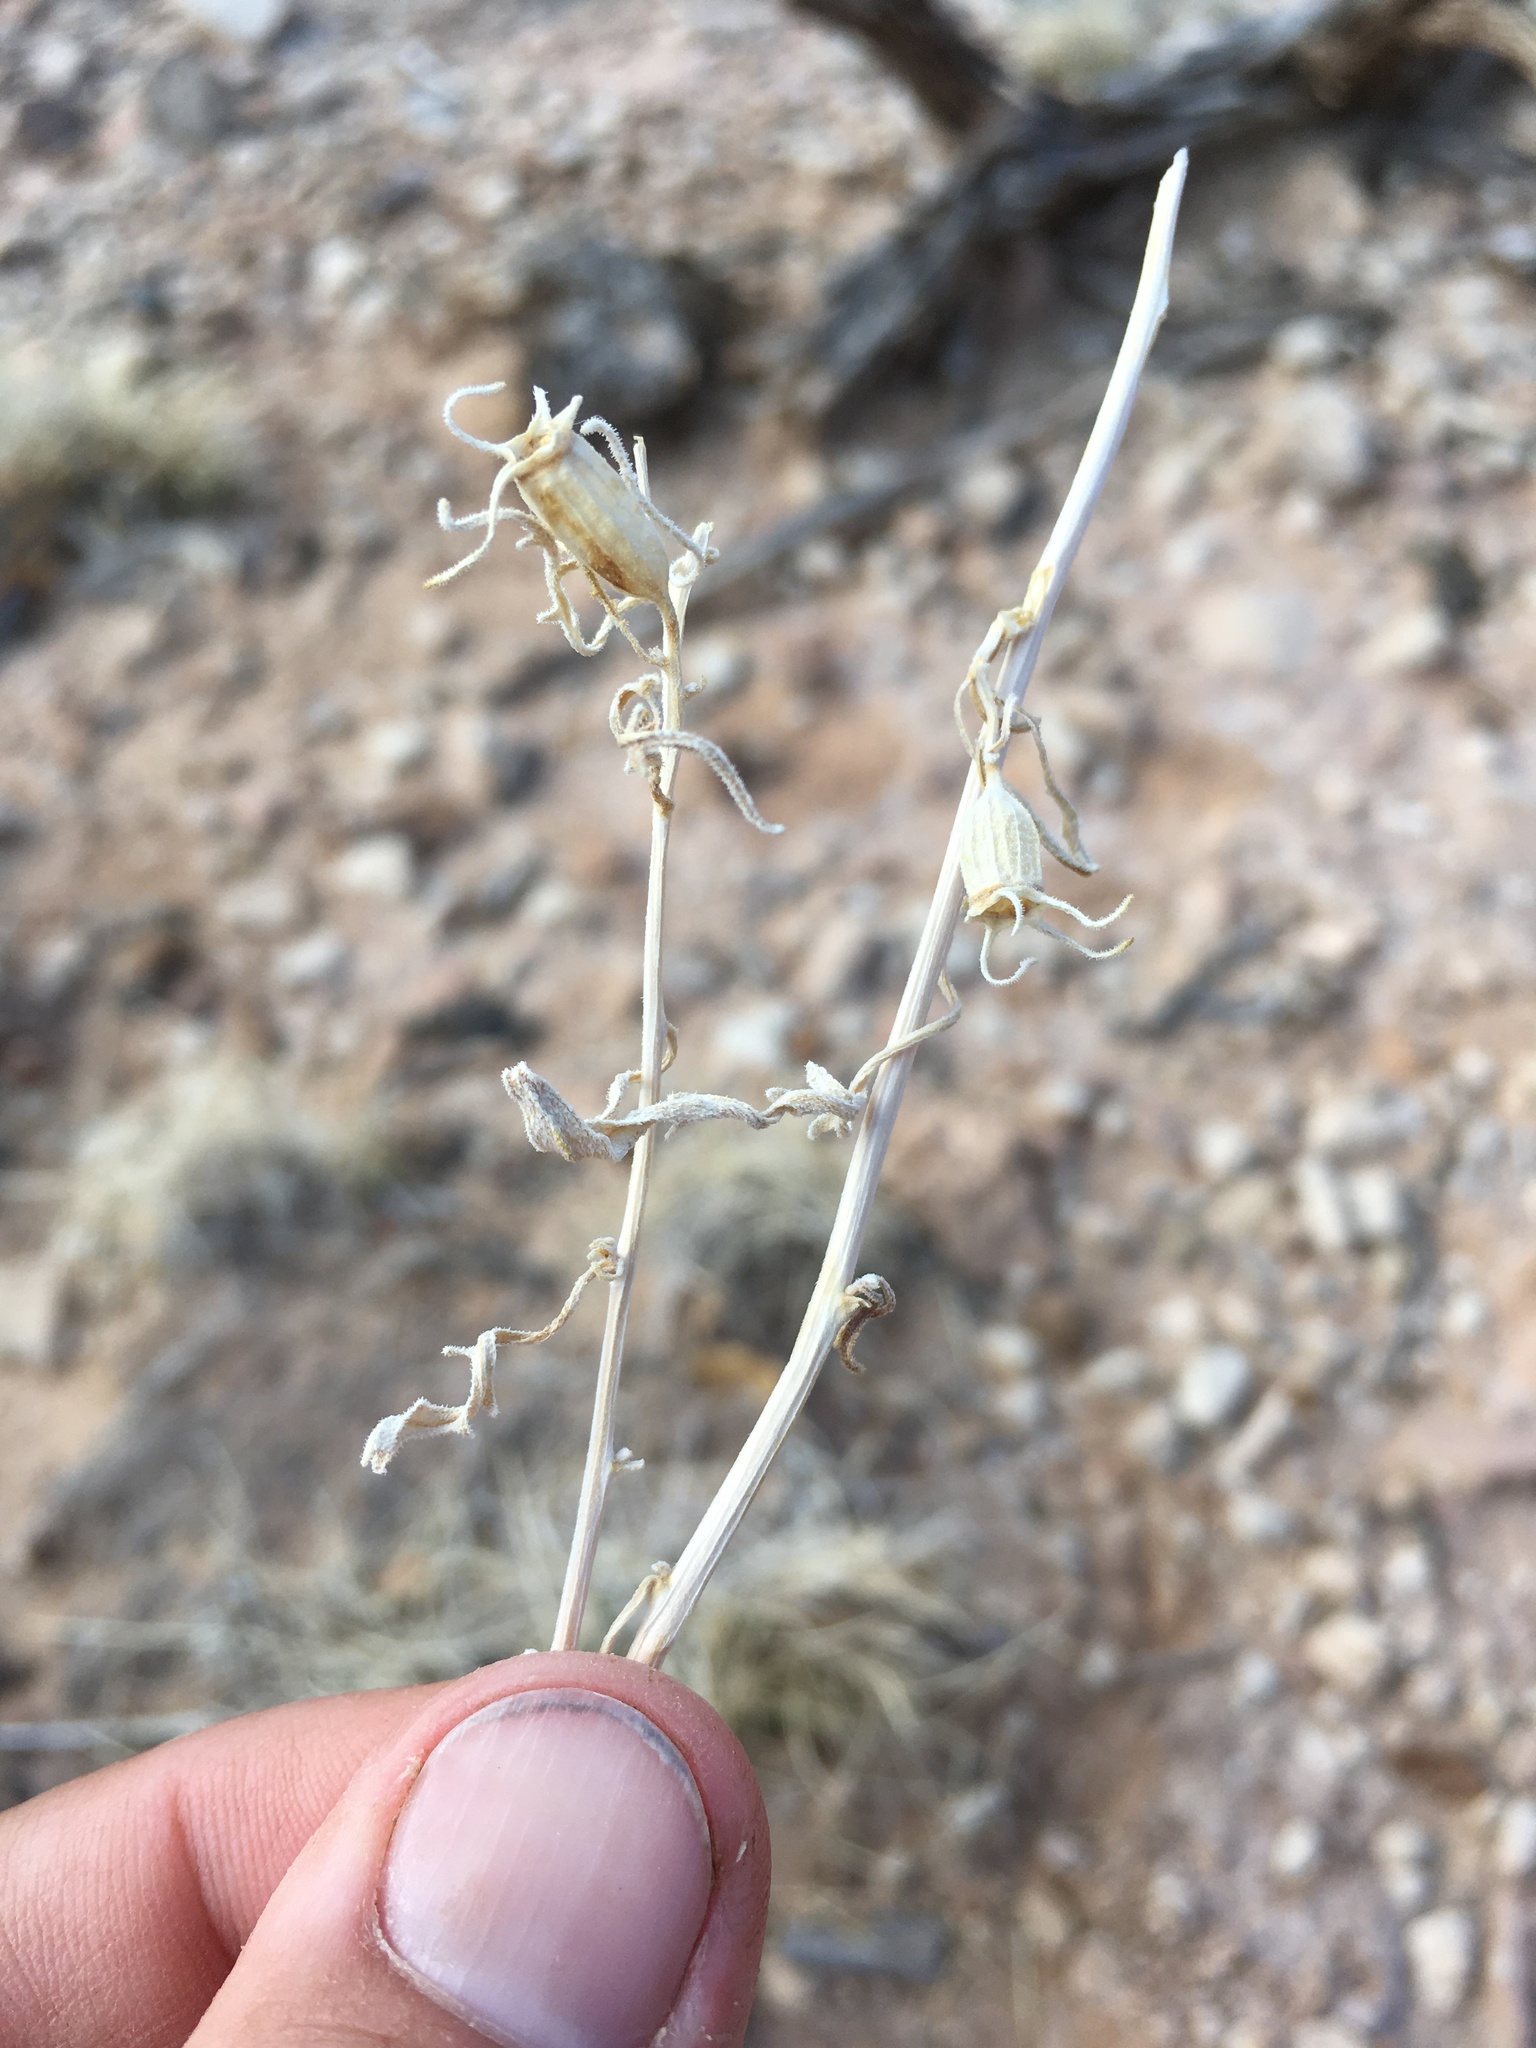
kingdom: Plantae
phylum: Tracheophyta
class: Magnoliopsida
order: Cornales
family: Loasaceae
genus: Mentzelia
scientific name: Mentzelia todiltoensis
